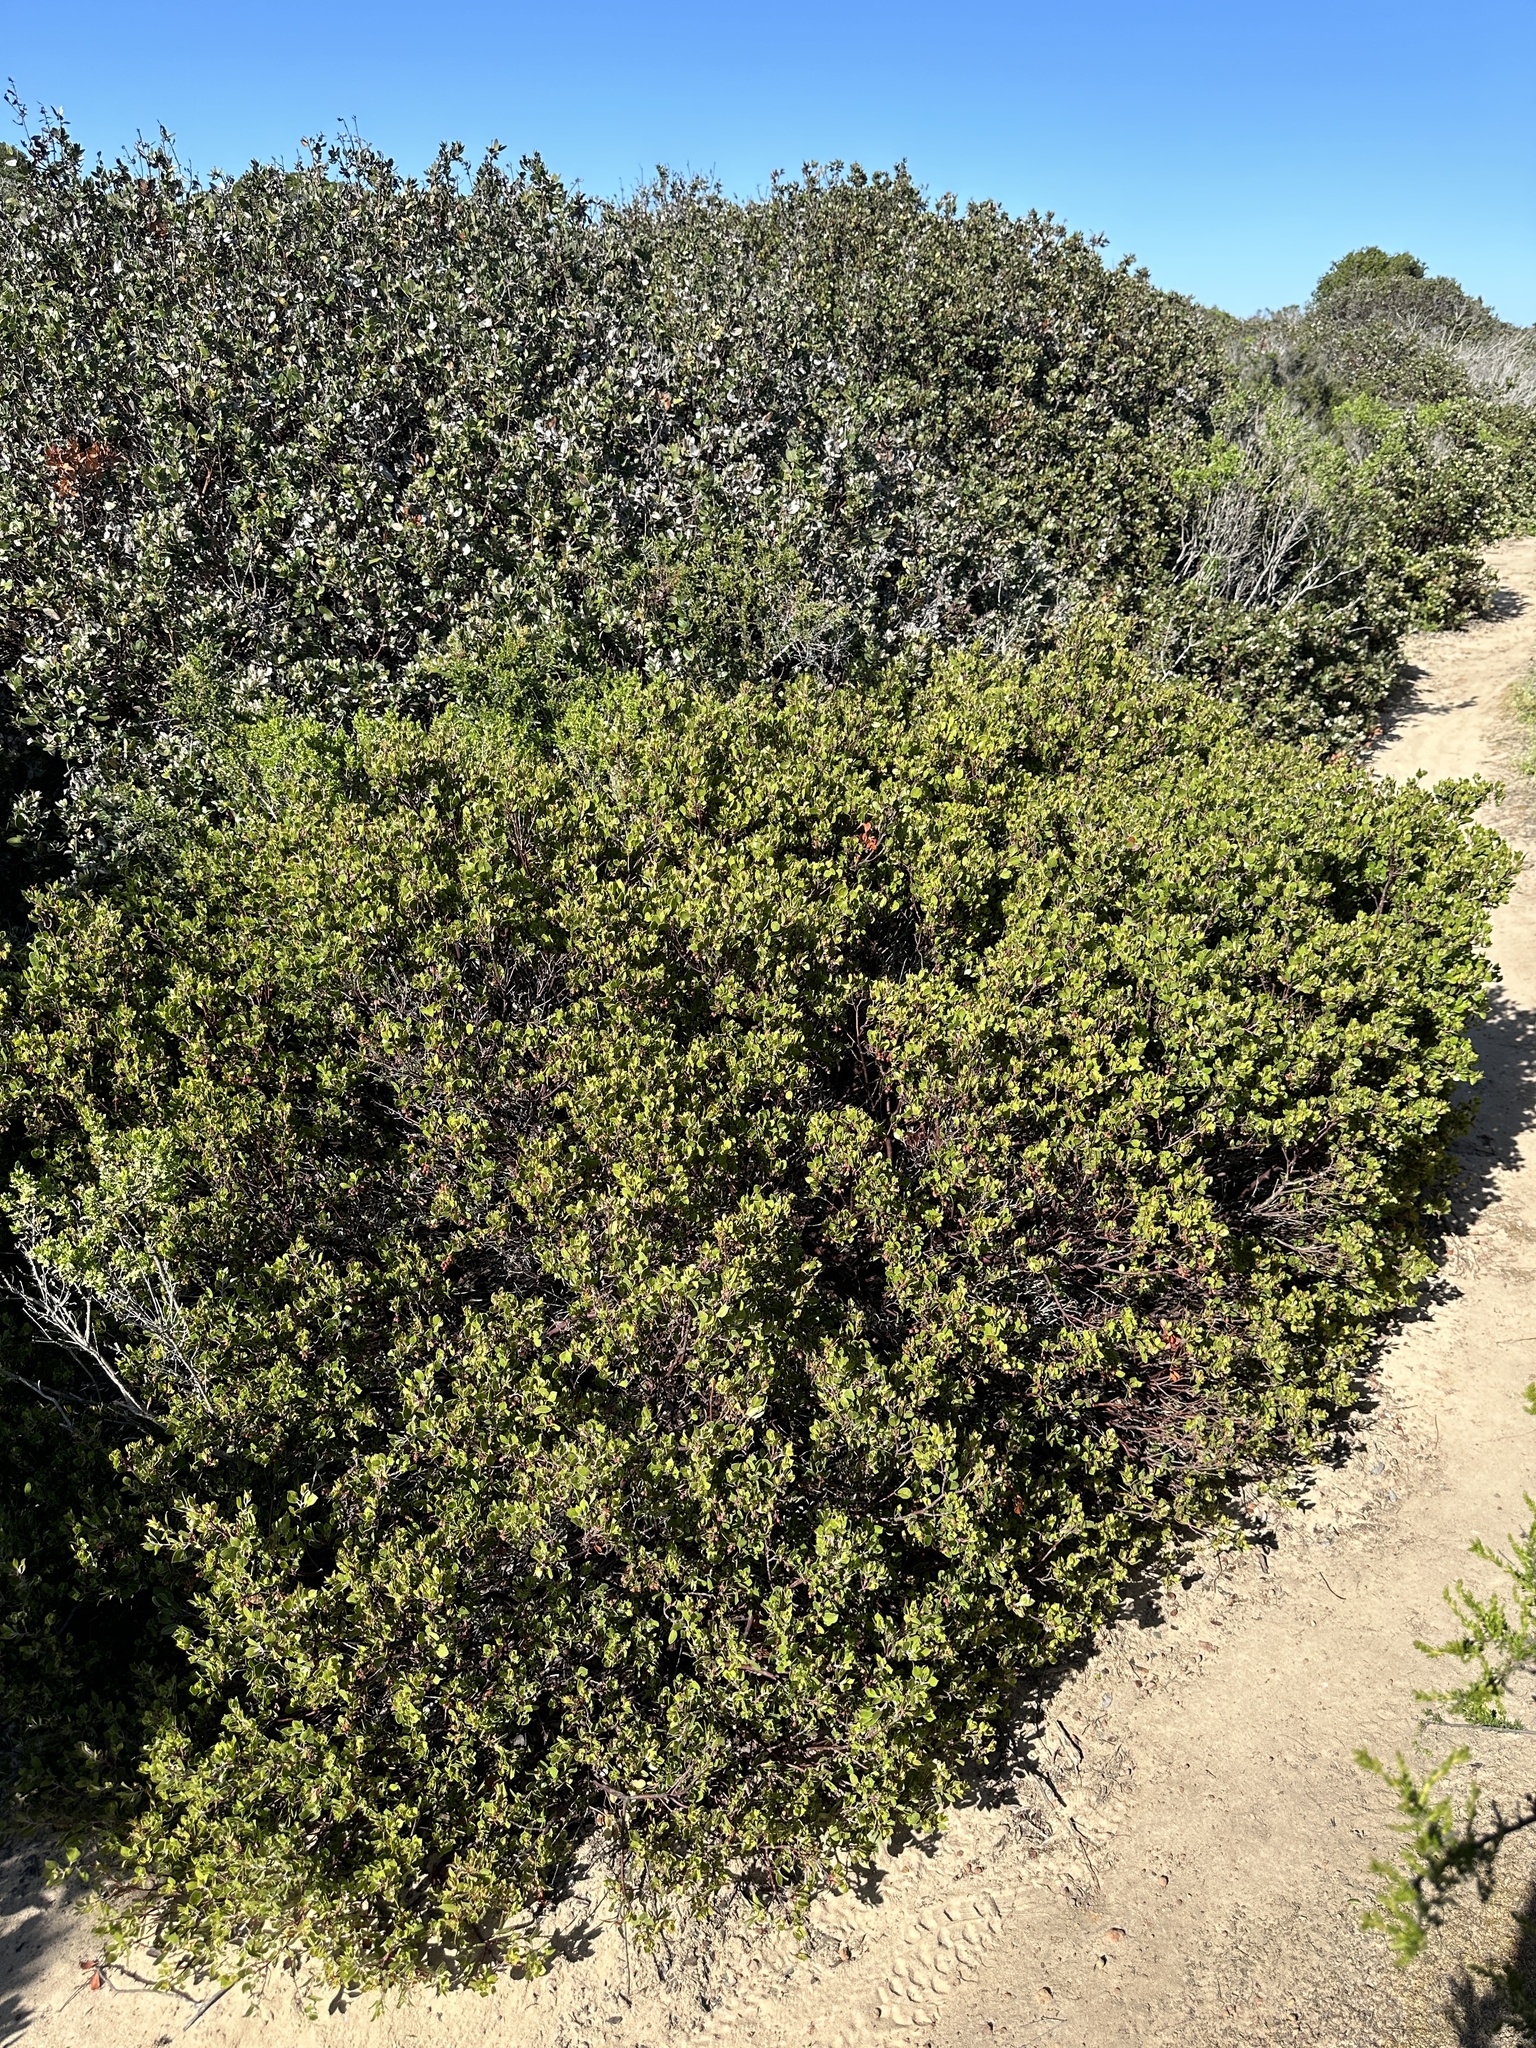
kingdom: Plantae
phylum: Tracheophyta
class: Magnoliopsida
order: Ericales
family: Ericaceae
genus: Arctostaphylos
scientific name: Arctostaphylos hookeri
